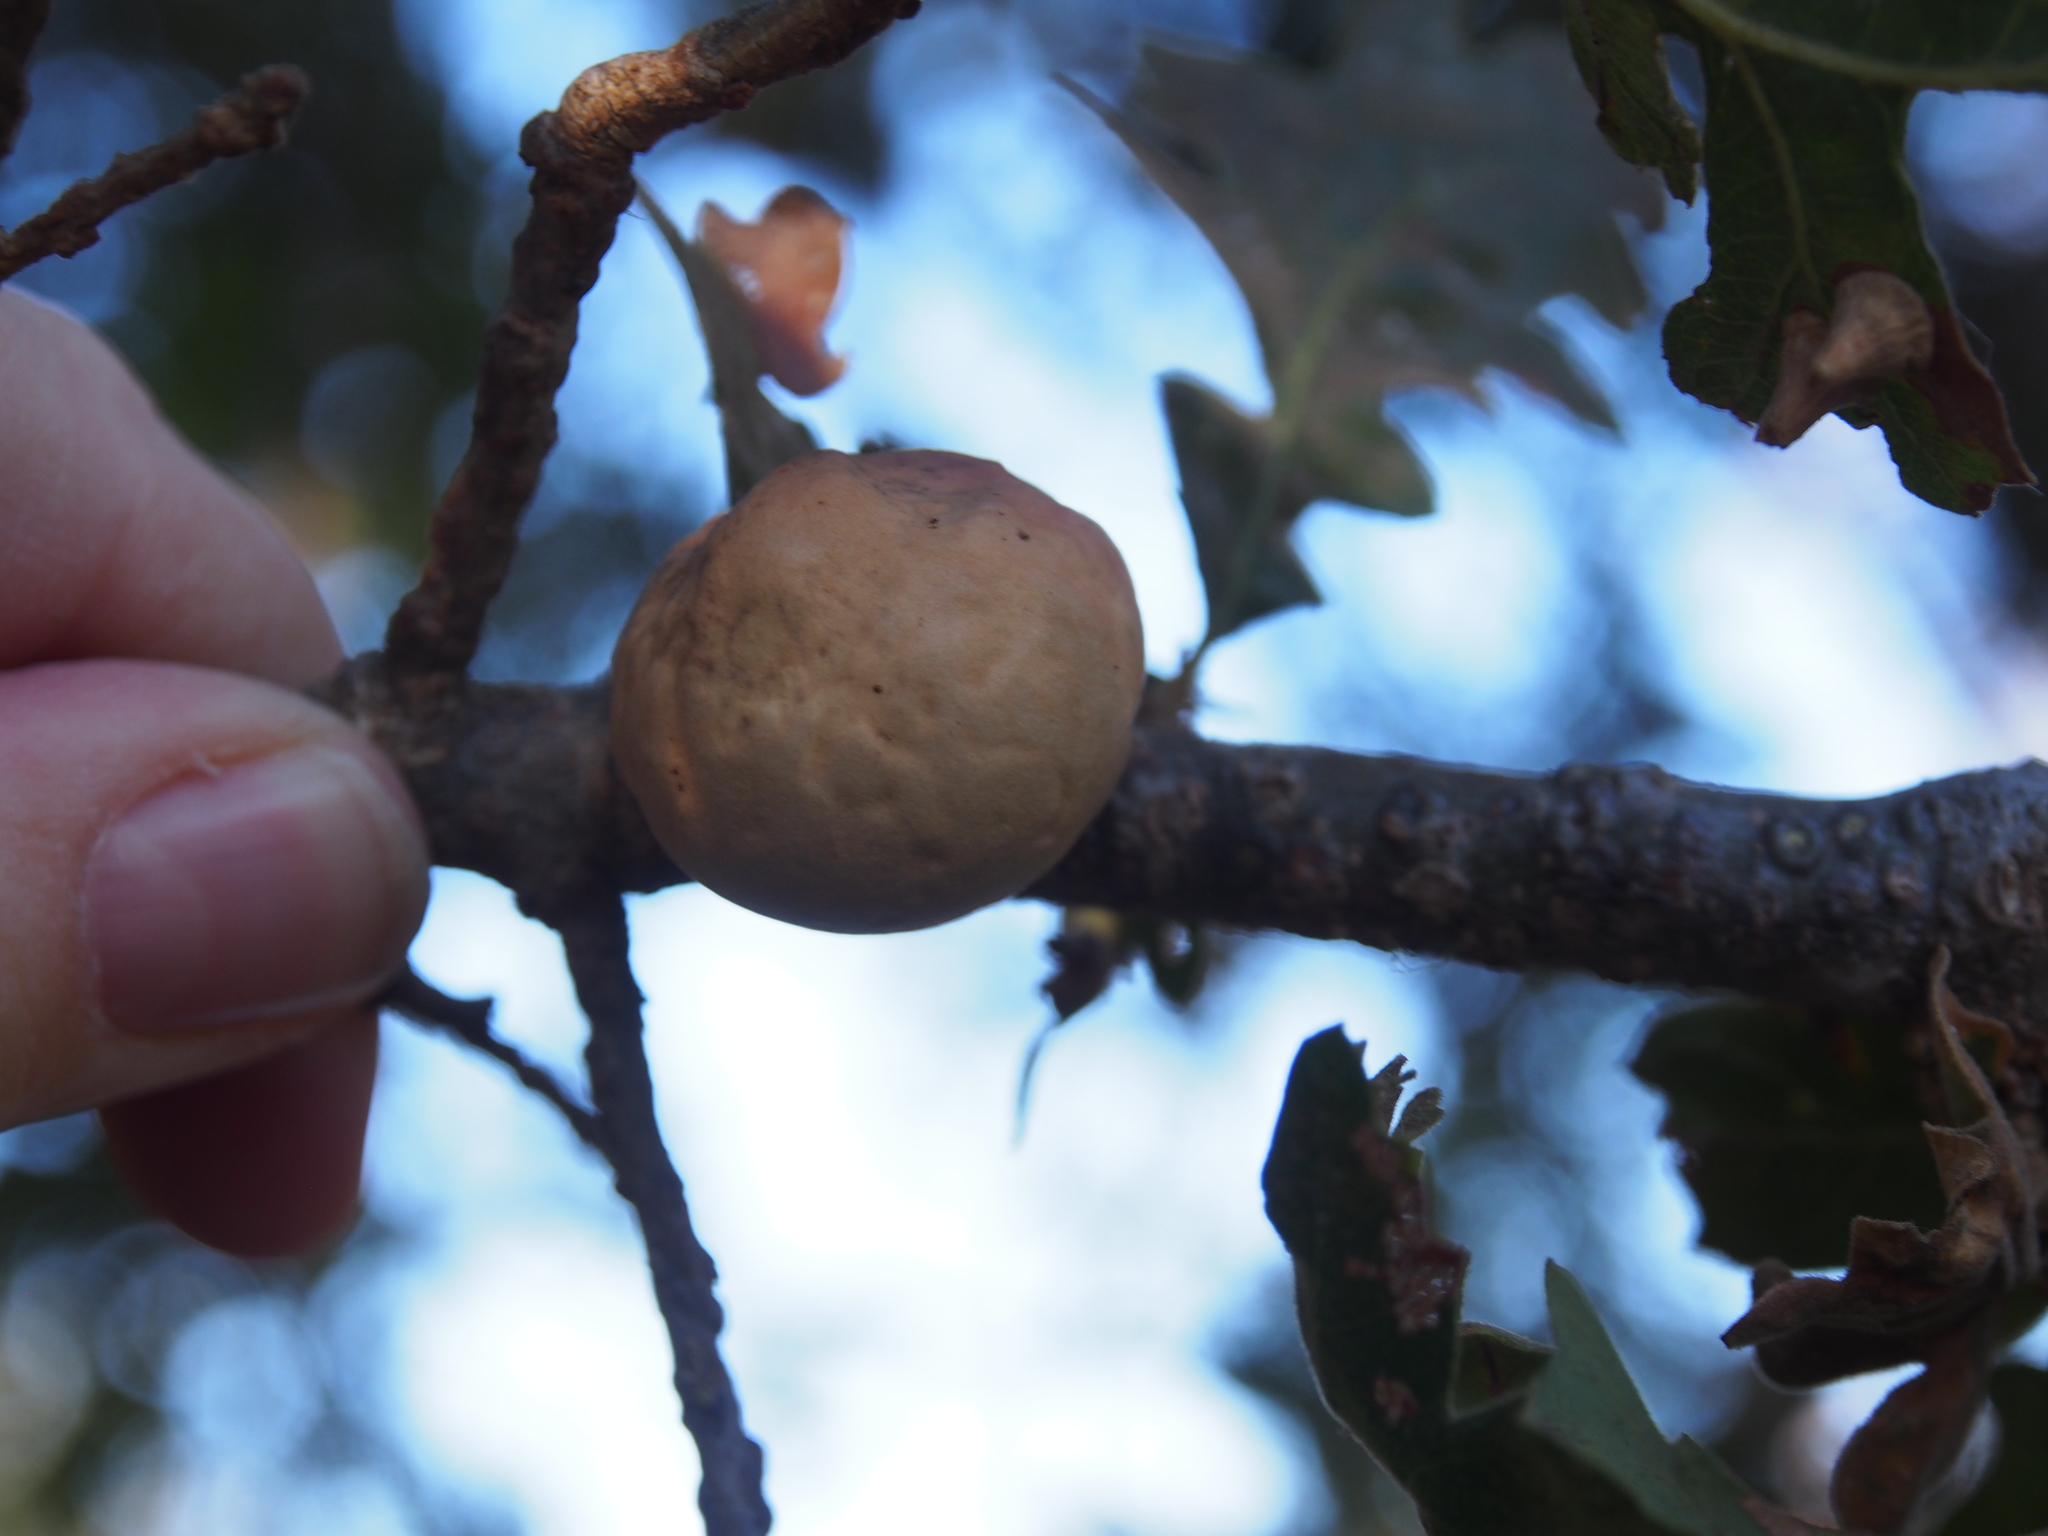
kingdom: Animalia
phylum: Arthropoda
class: Insecta
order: Hymenoptera
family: Cynipidae
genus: Andricus
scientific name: Andricus quercuscalifornicus
